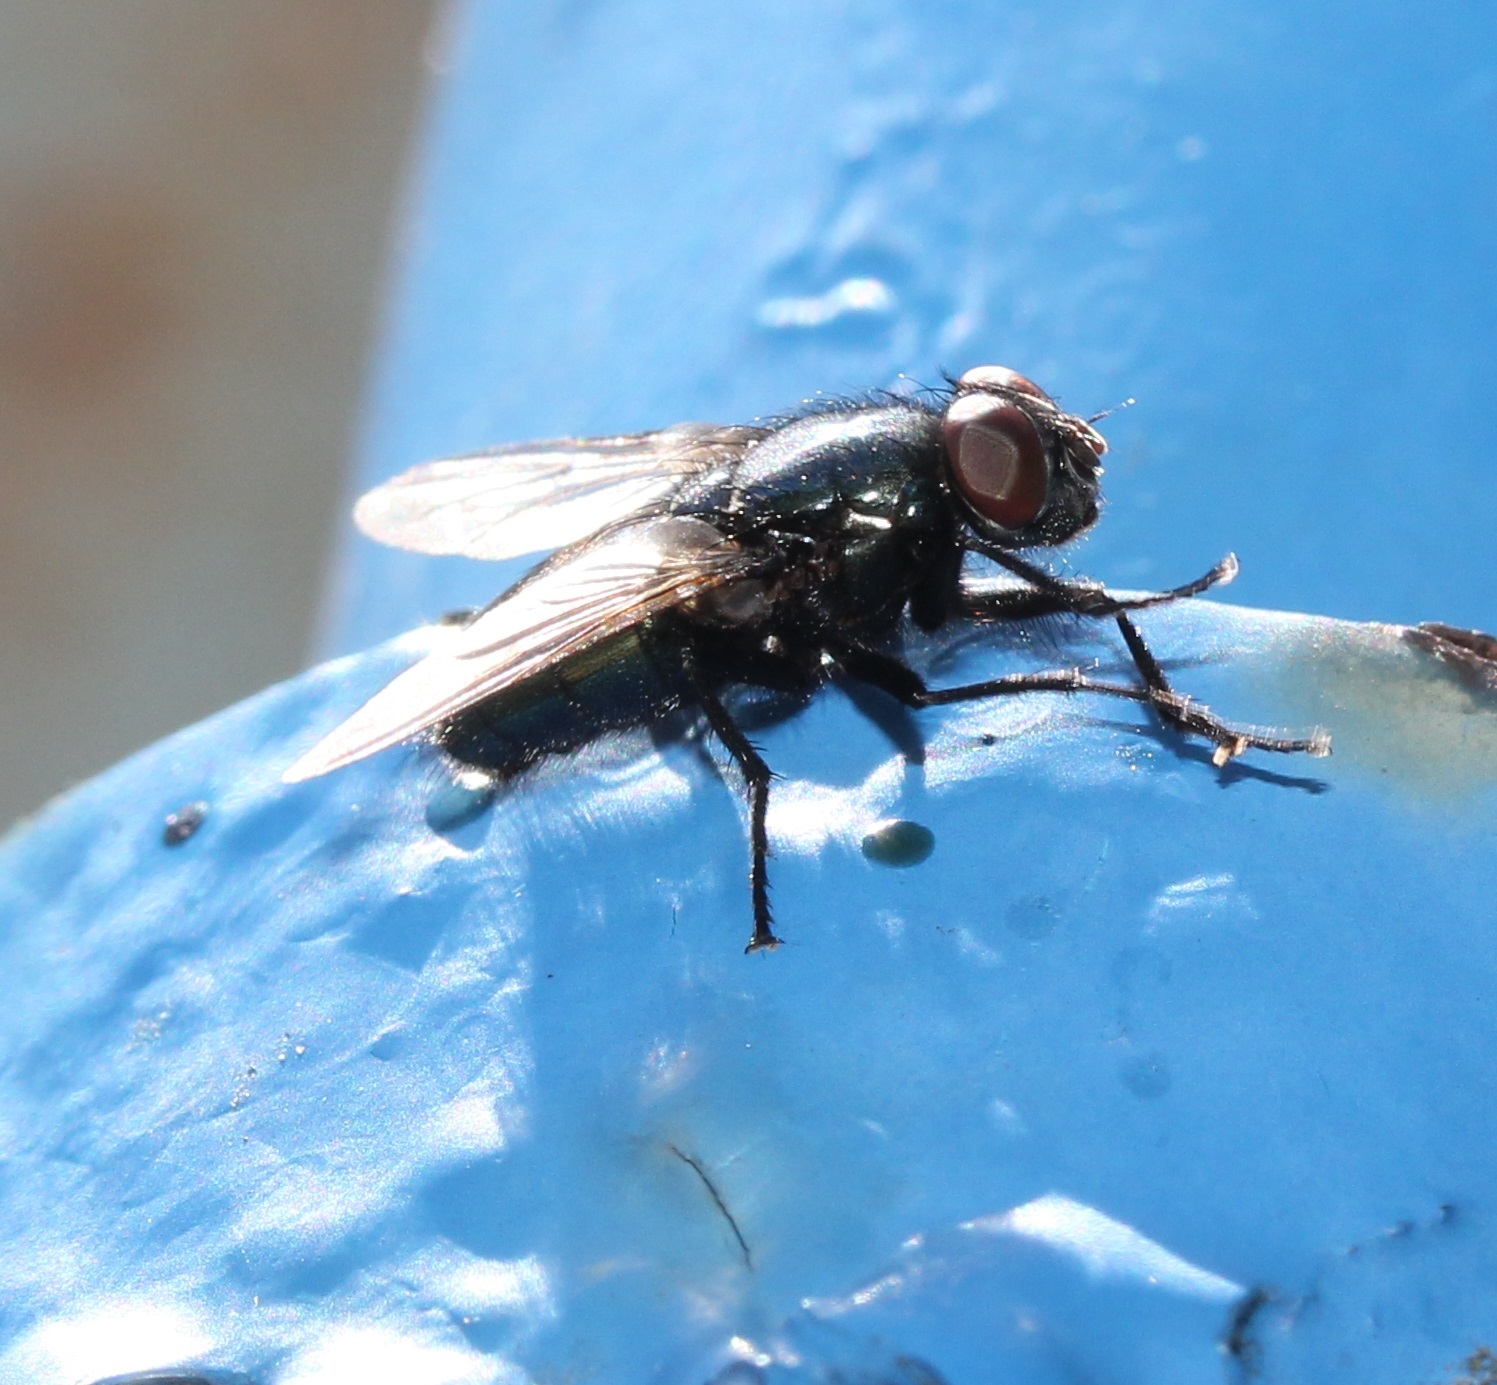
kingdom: Animalia
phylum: Arthropoda
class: Insecta
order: Diptera
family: Calliphoridae
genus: Protophormia
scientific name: Protophormia terraenovae
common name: Blackbottle
